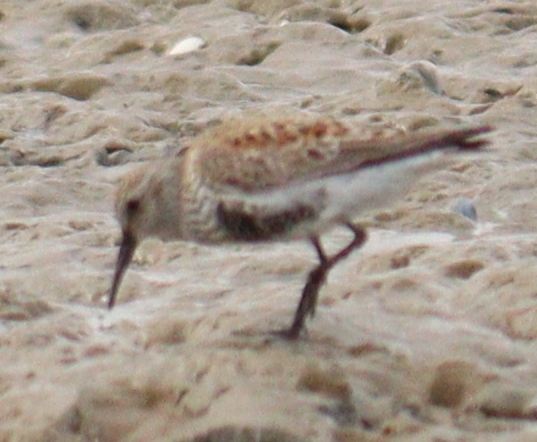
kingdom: Animalia
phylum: Chordata
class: Aves
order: Charadriiformes
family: Scolopacidae
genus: Calidris
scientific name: Calidris alpina
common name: Dunlin
